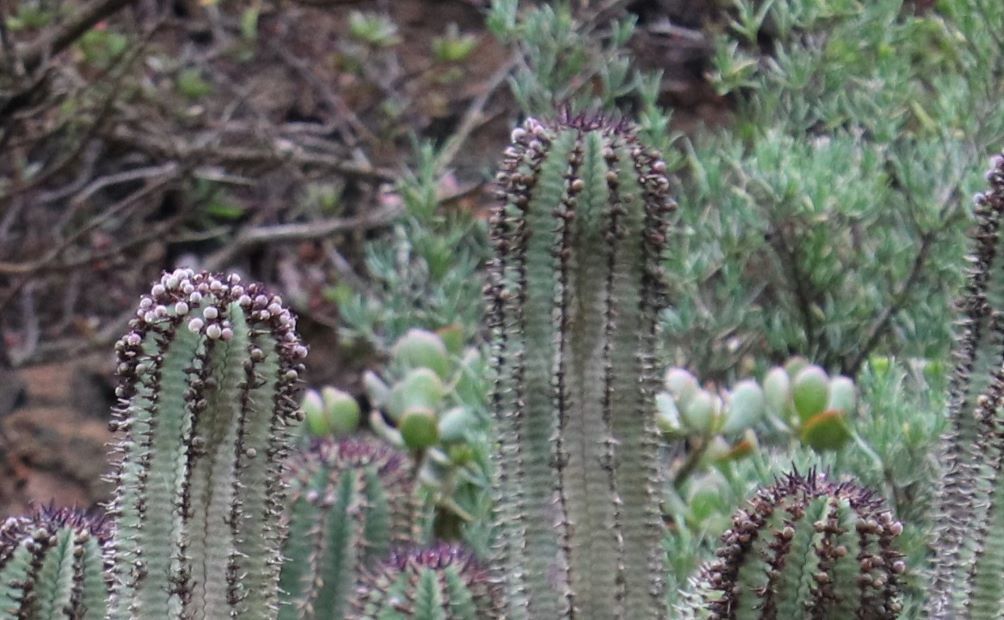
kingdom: Plantae
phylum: Tracheophyta
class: Magnoliopsida
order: Malpighiales
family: Euphorbiaceae
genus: Euphorbia
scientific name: Euphorbia polygona
